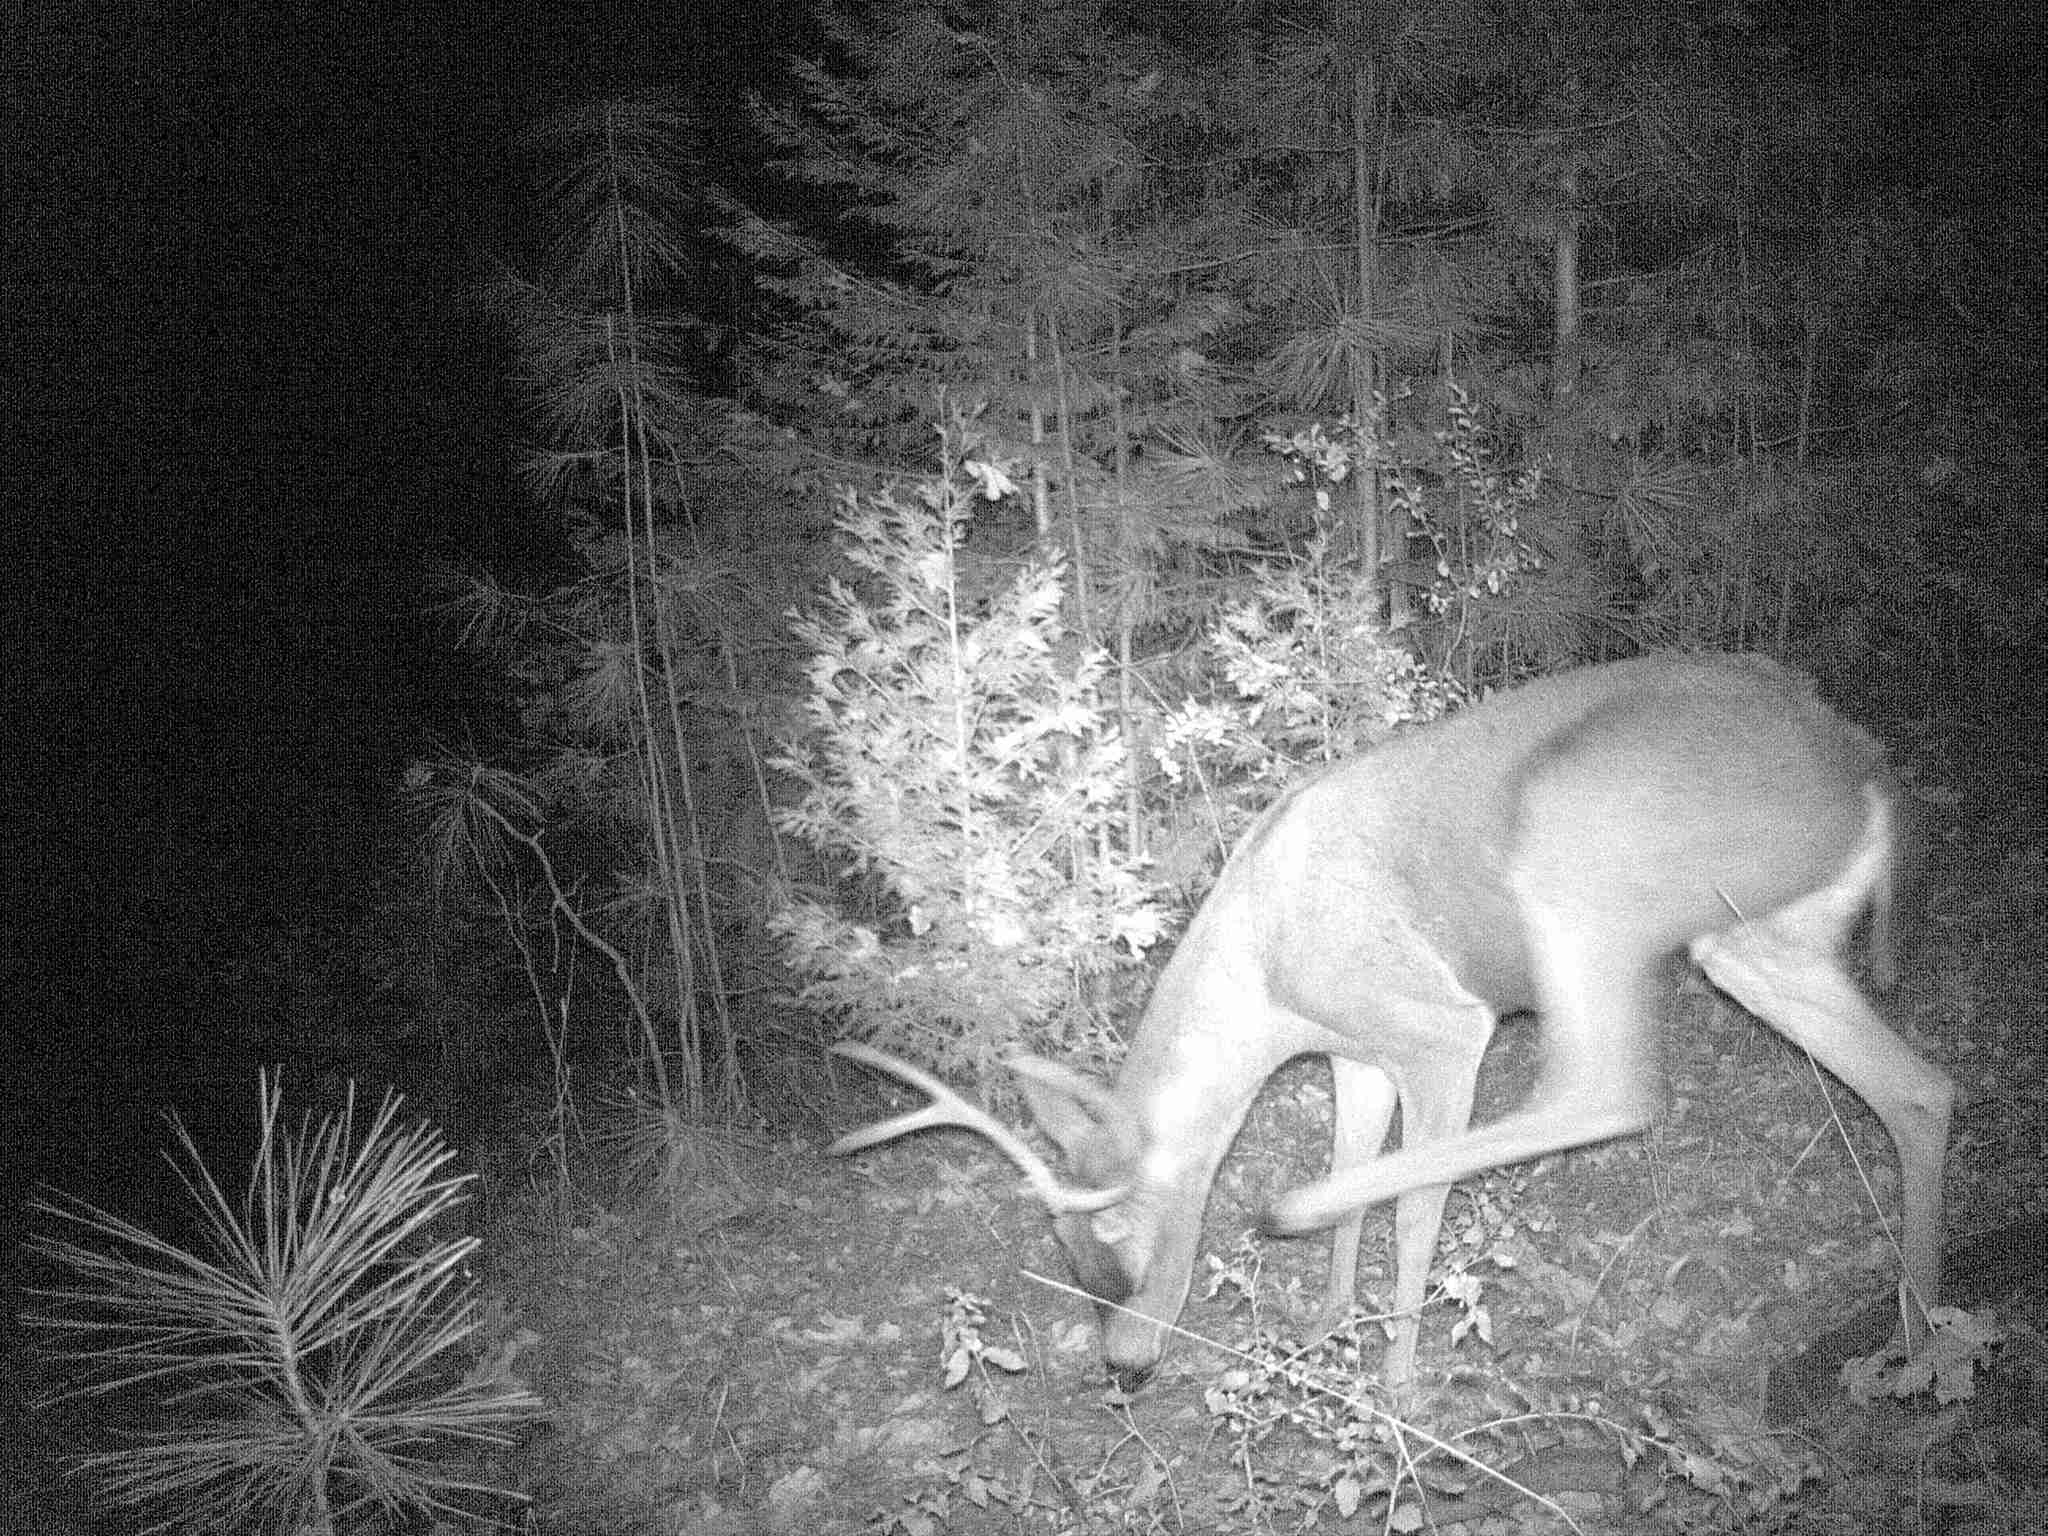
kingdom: Animalia
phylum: Chordata
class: Mammalia
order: Artiodactyla
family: Cervidae
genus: Odocoileus
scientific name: Odocoileus hemionus
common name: Mule deer
